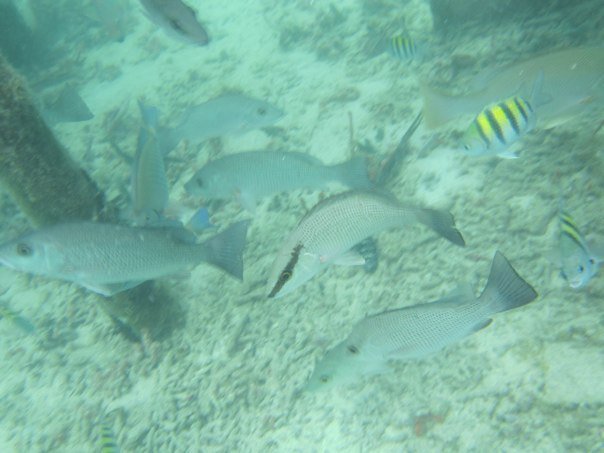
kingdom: Animalia
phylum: Chordata
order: Perciformes
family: Lutjanidae
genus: Lutjanus
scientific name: Lutjanus griseus
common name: Gray snapper
